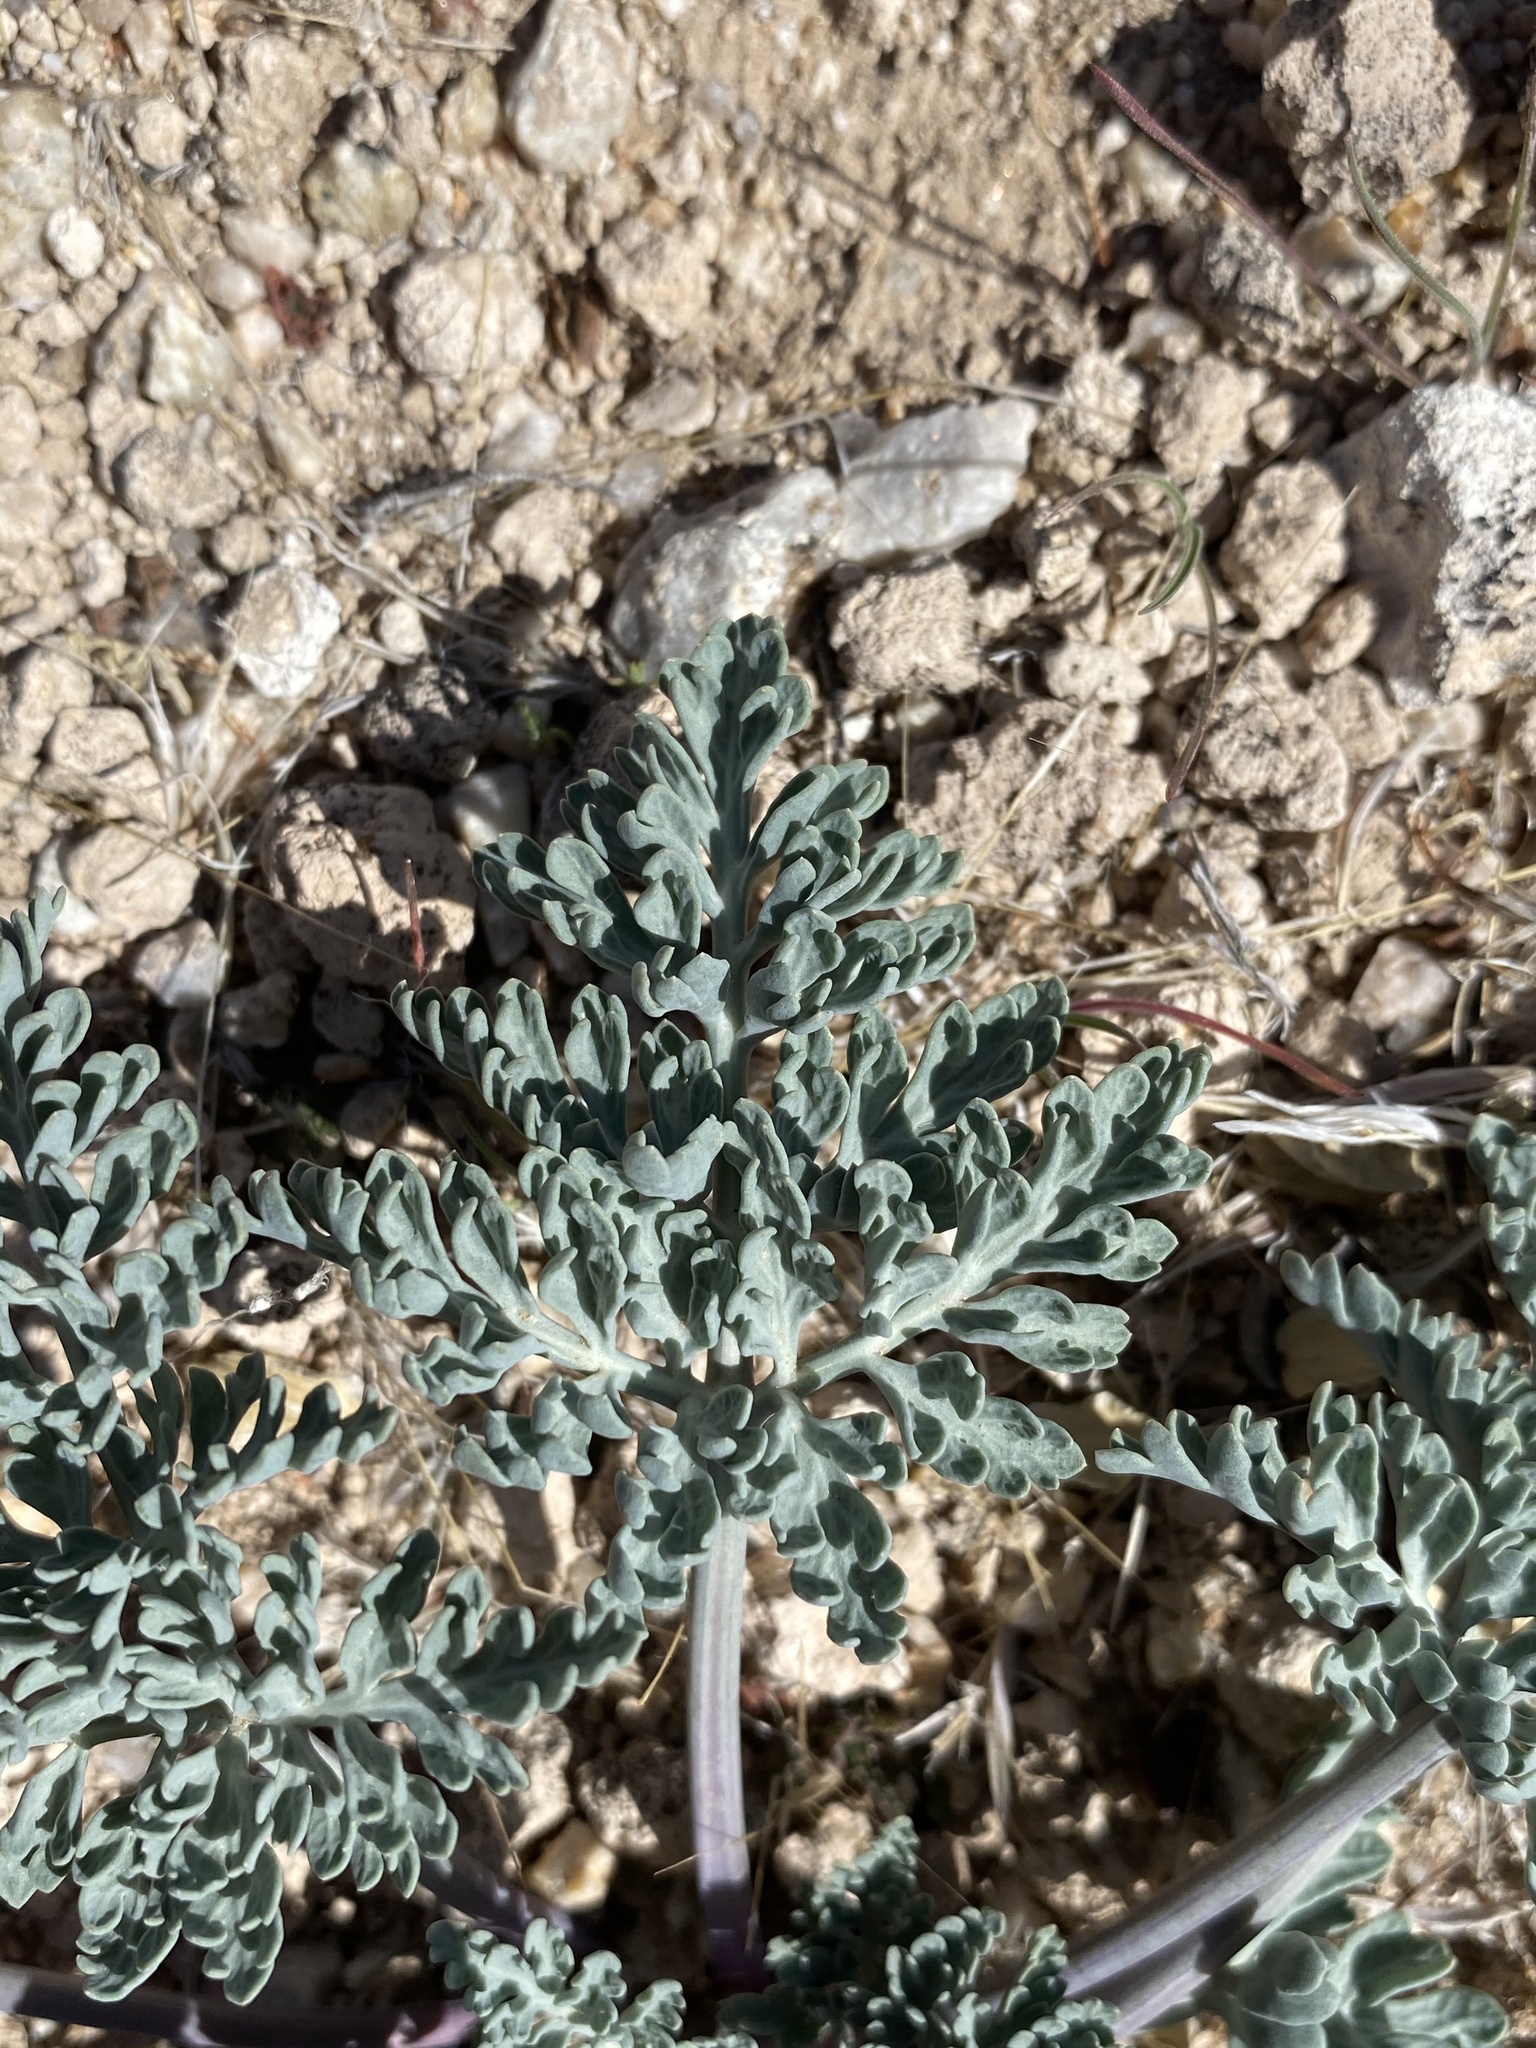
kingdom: Plantae
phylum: Tracheophyta
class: Magnoliopsida
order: Apiales
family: Apiaceae
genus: Vesper
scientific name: Vesper multinervatus
